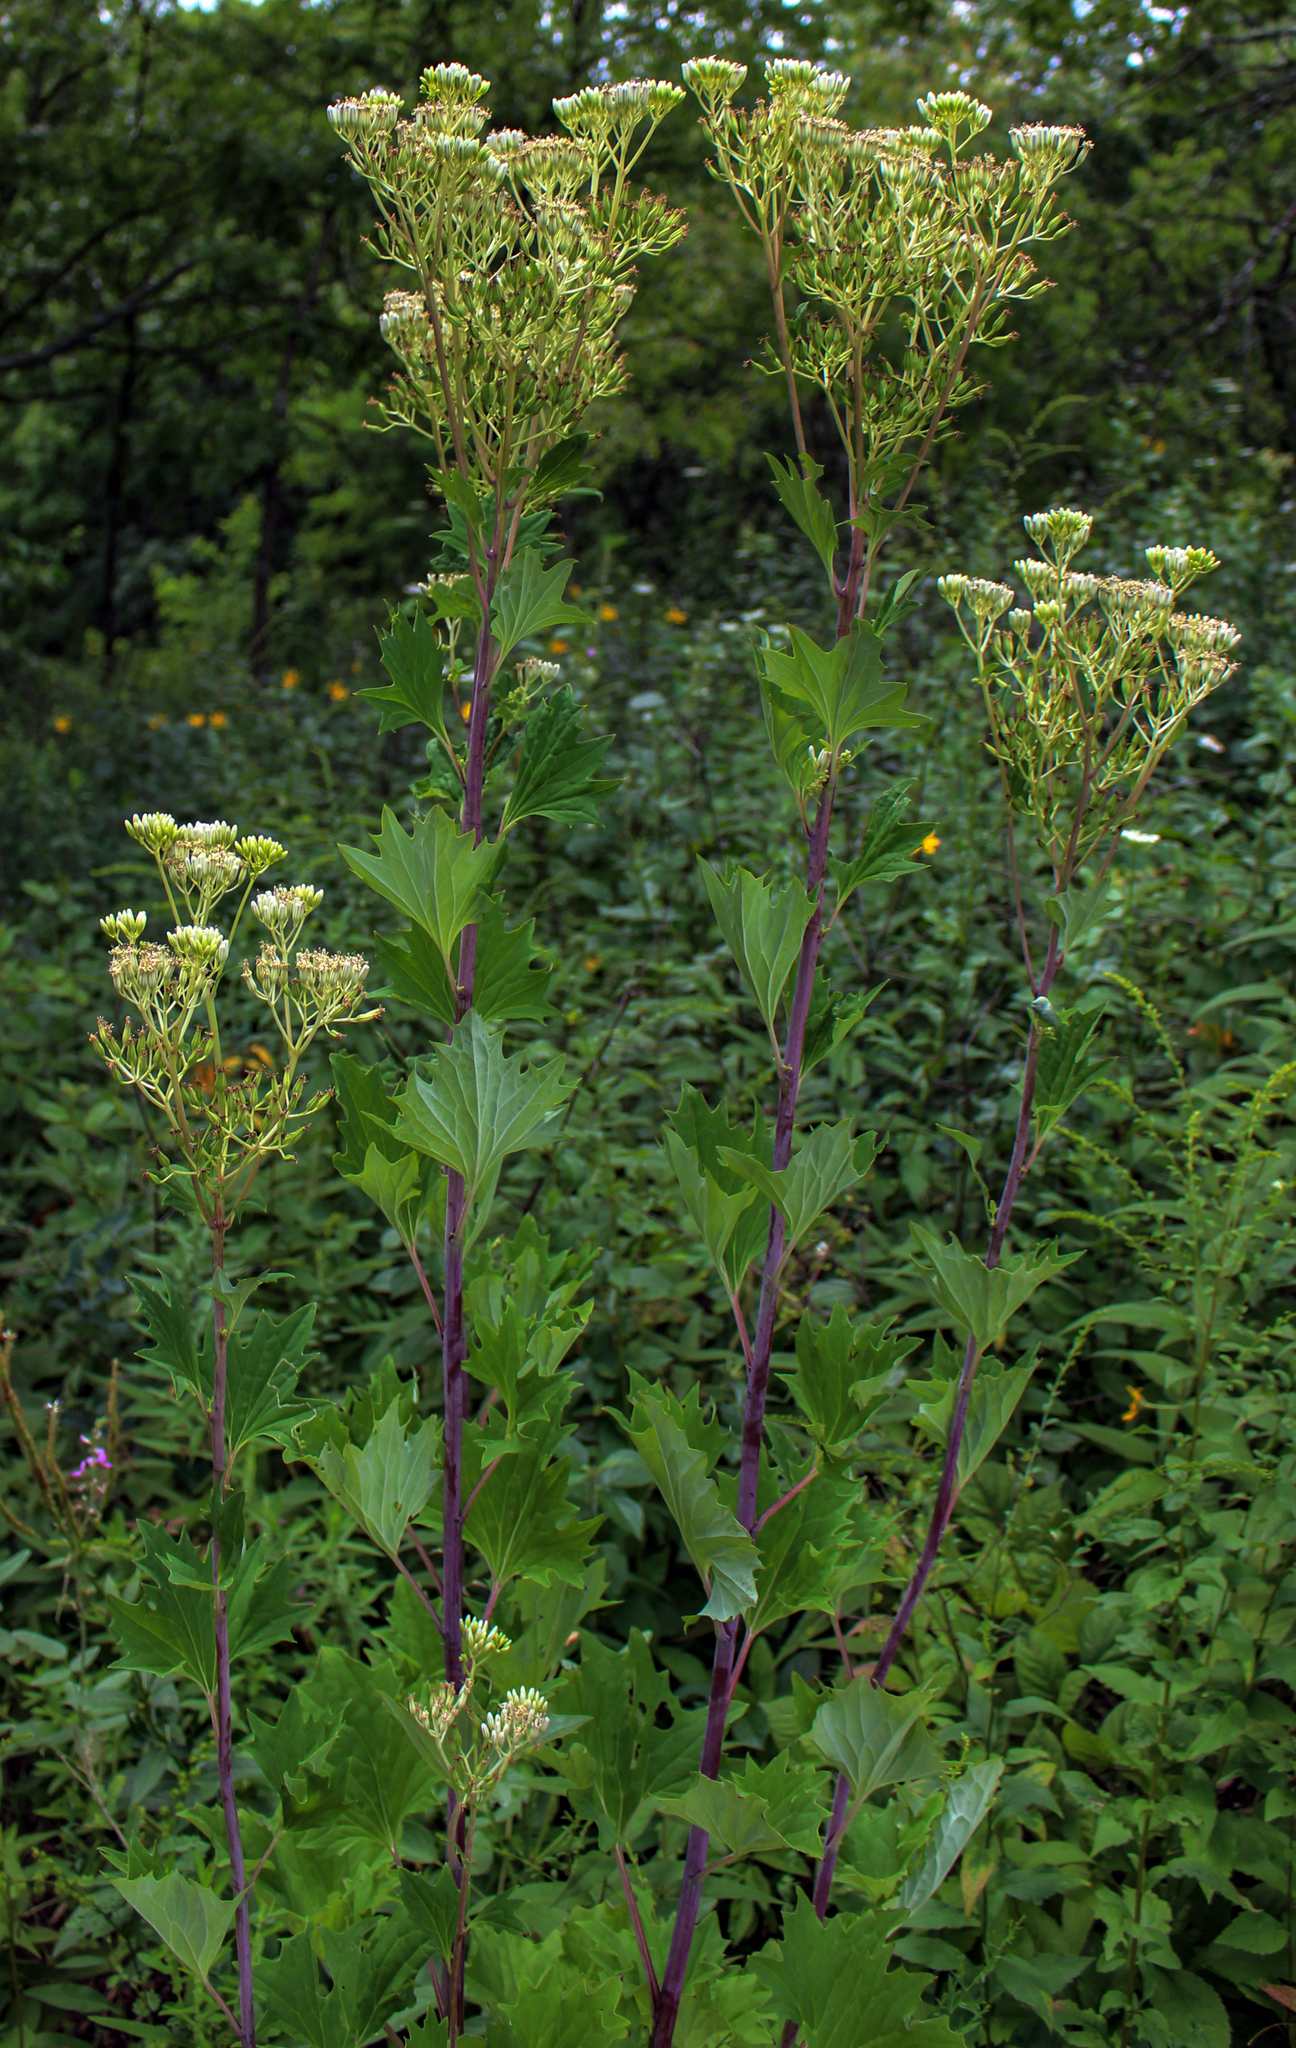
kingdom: Plantae
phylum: Tracheophyta
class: Magnoliopsida
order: Asterales
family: Asteraceae
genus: Arnoglossum
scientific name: Arnoglossum atriplicifolium
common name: Pale indian-plantain
